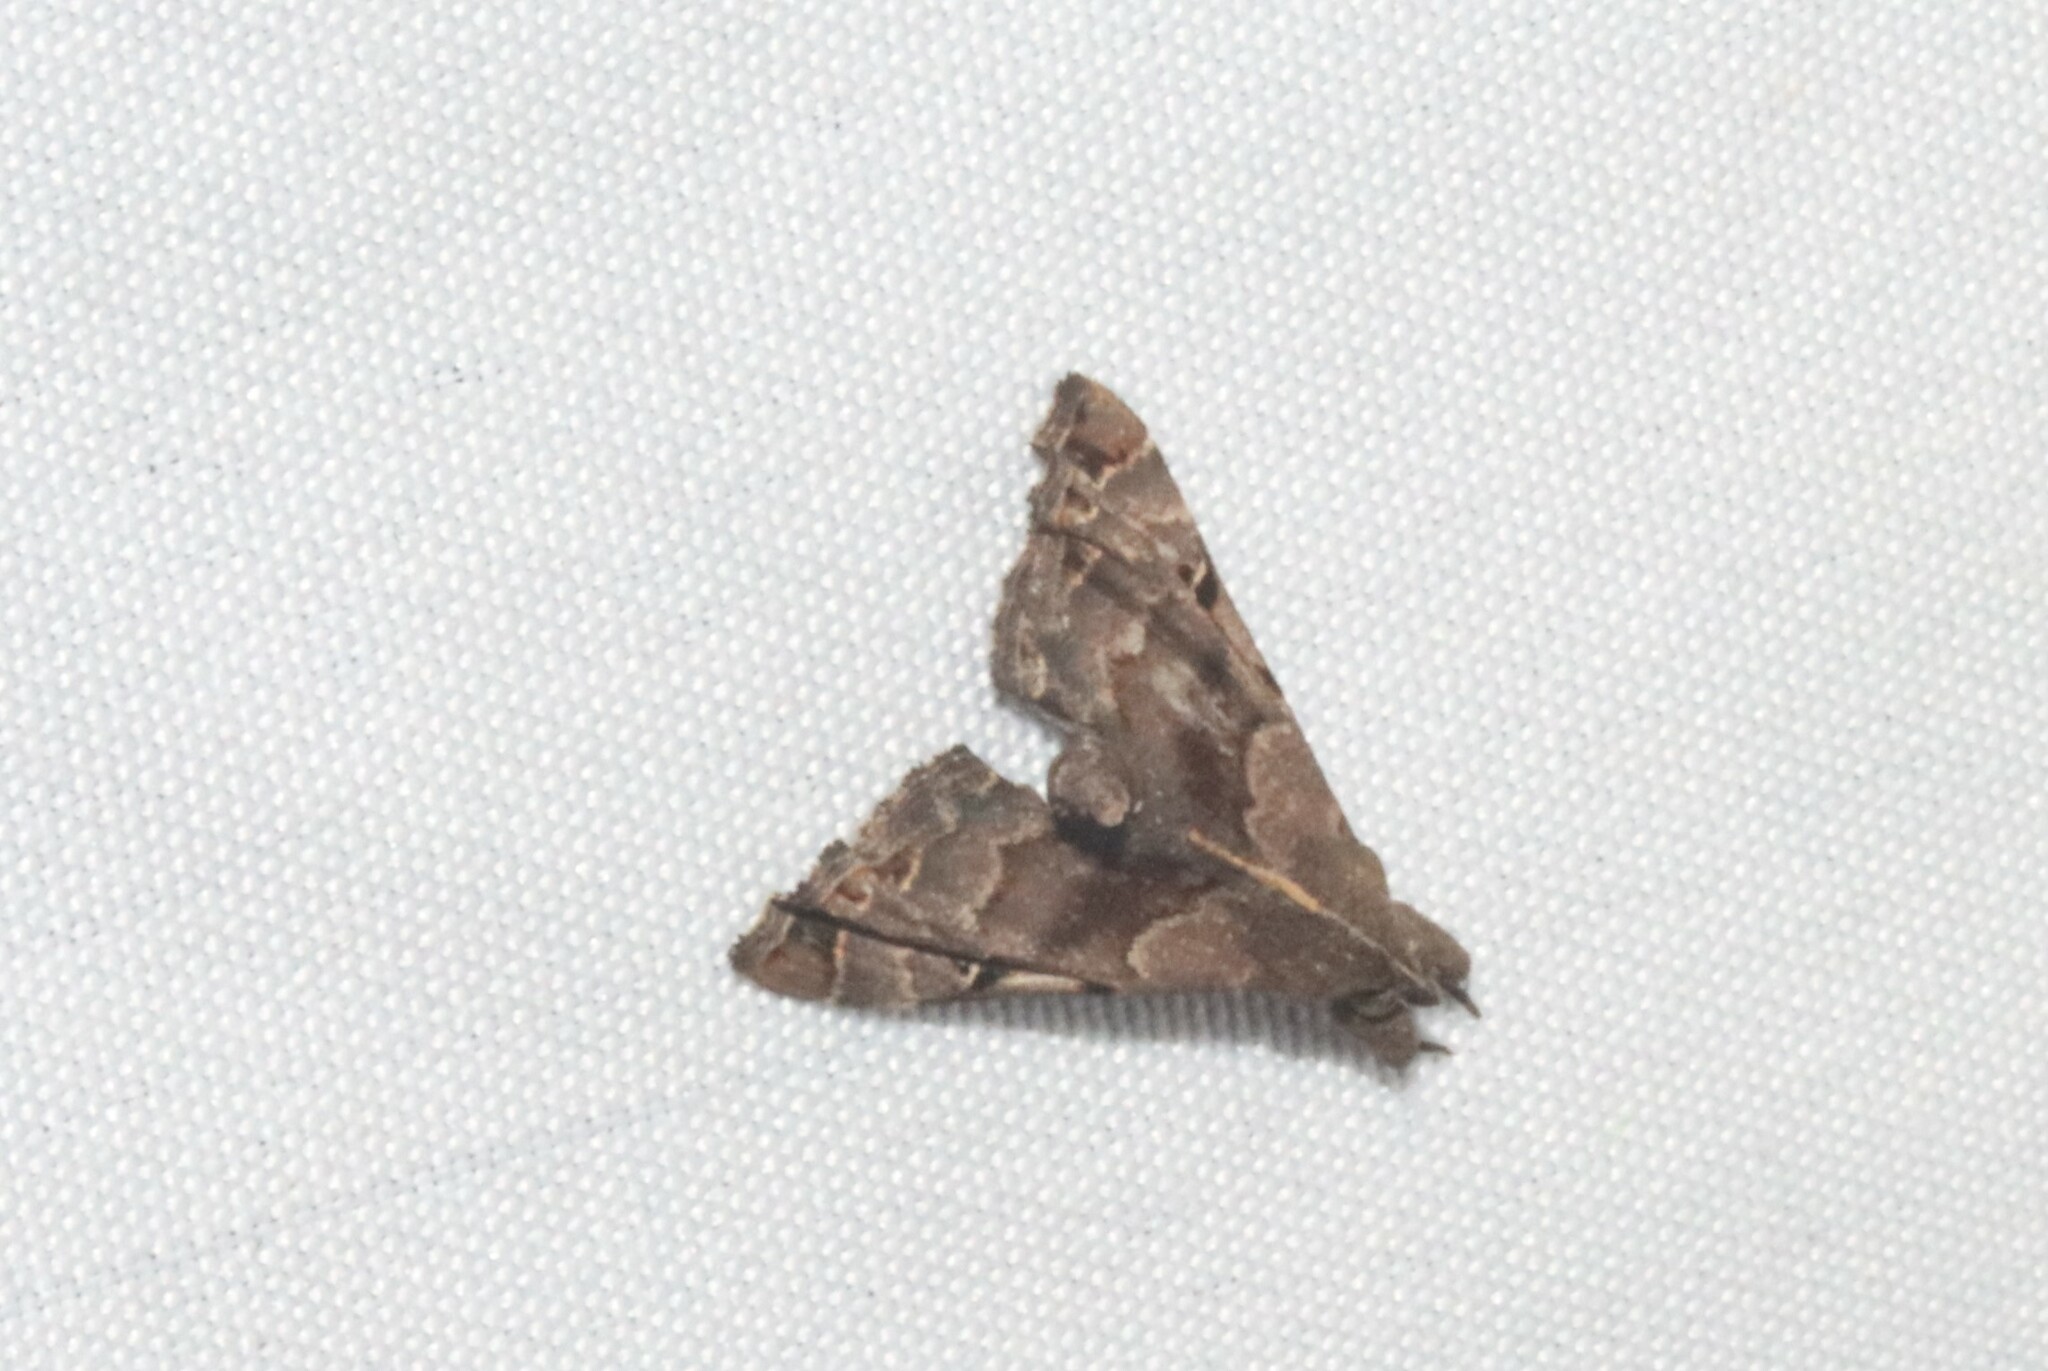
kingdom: Animalia
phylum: Arthropoda
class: Insecta
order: Lepidoptera
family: Erebidae
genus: Palthis
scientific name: Palthis asopialis
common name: Faint-spotted palthis moth
